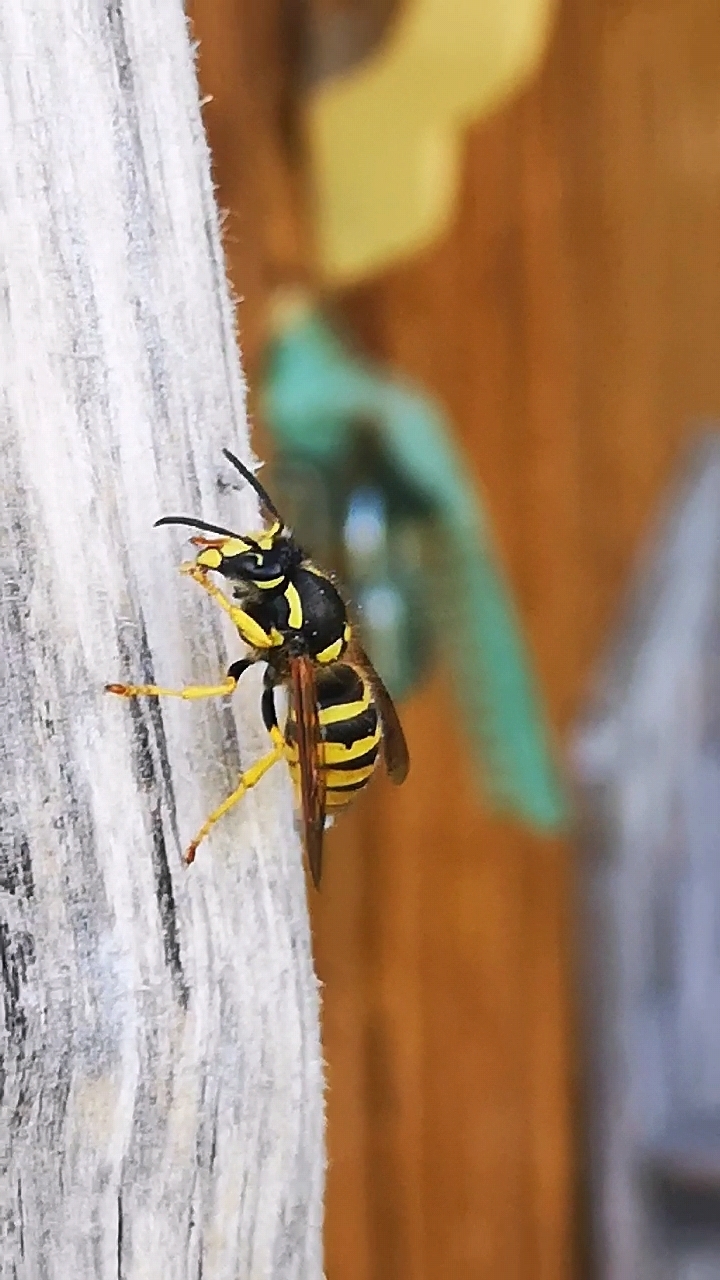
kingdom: Animalia
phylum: Arthropoda
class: Insecta
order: Hymenoptera
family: Vespidae
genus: Dolichovespula
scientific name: Dolichovespula sylvestris
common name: Tree wasp
